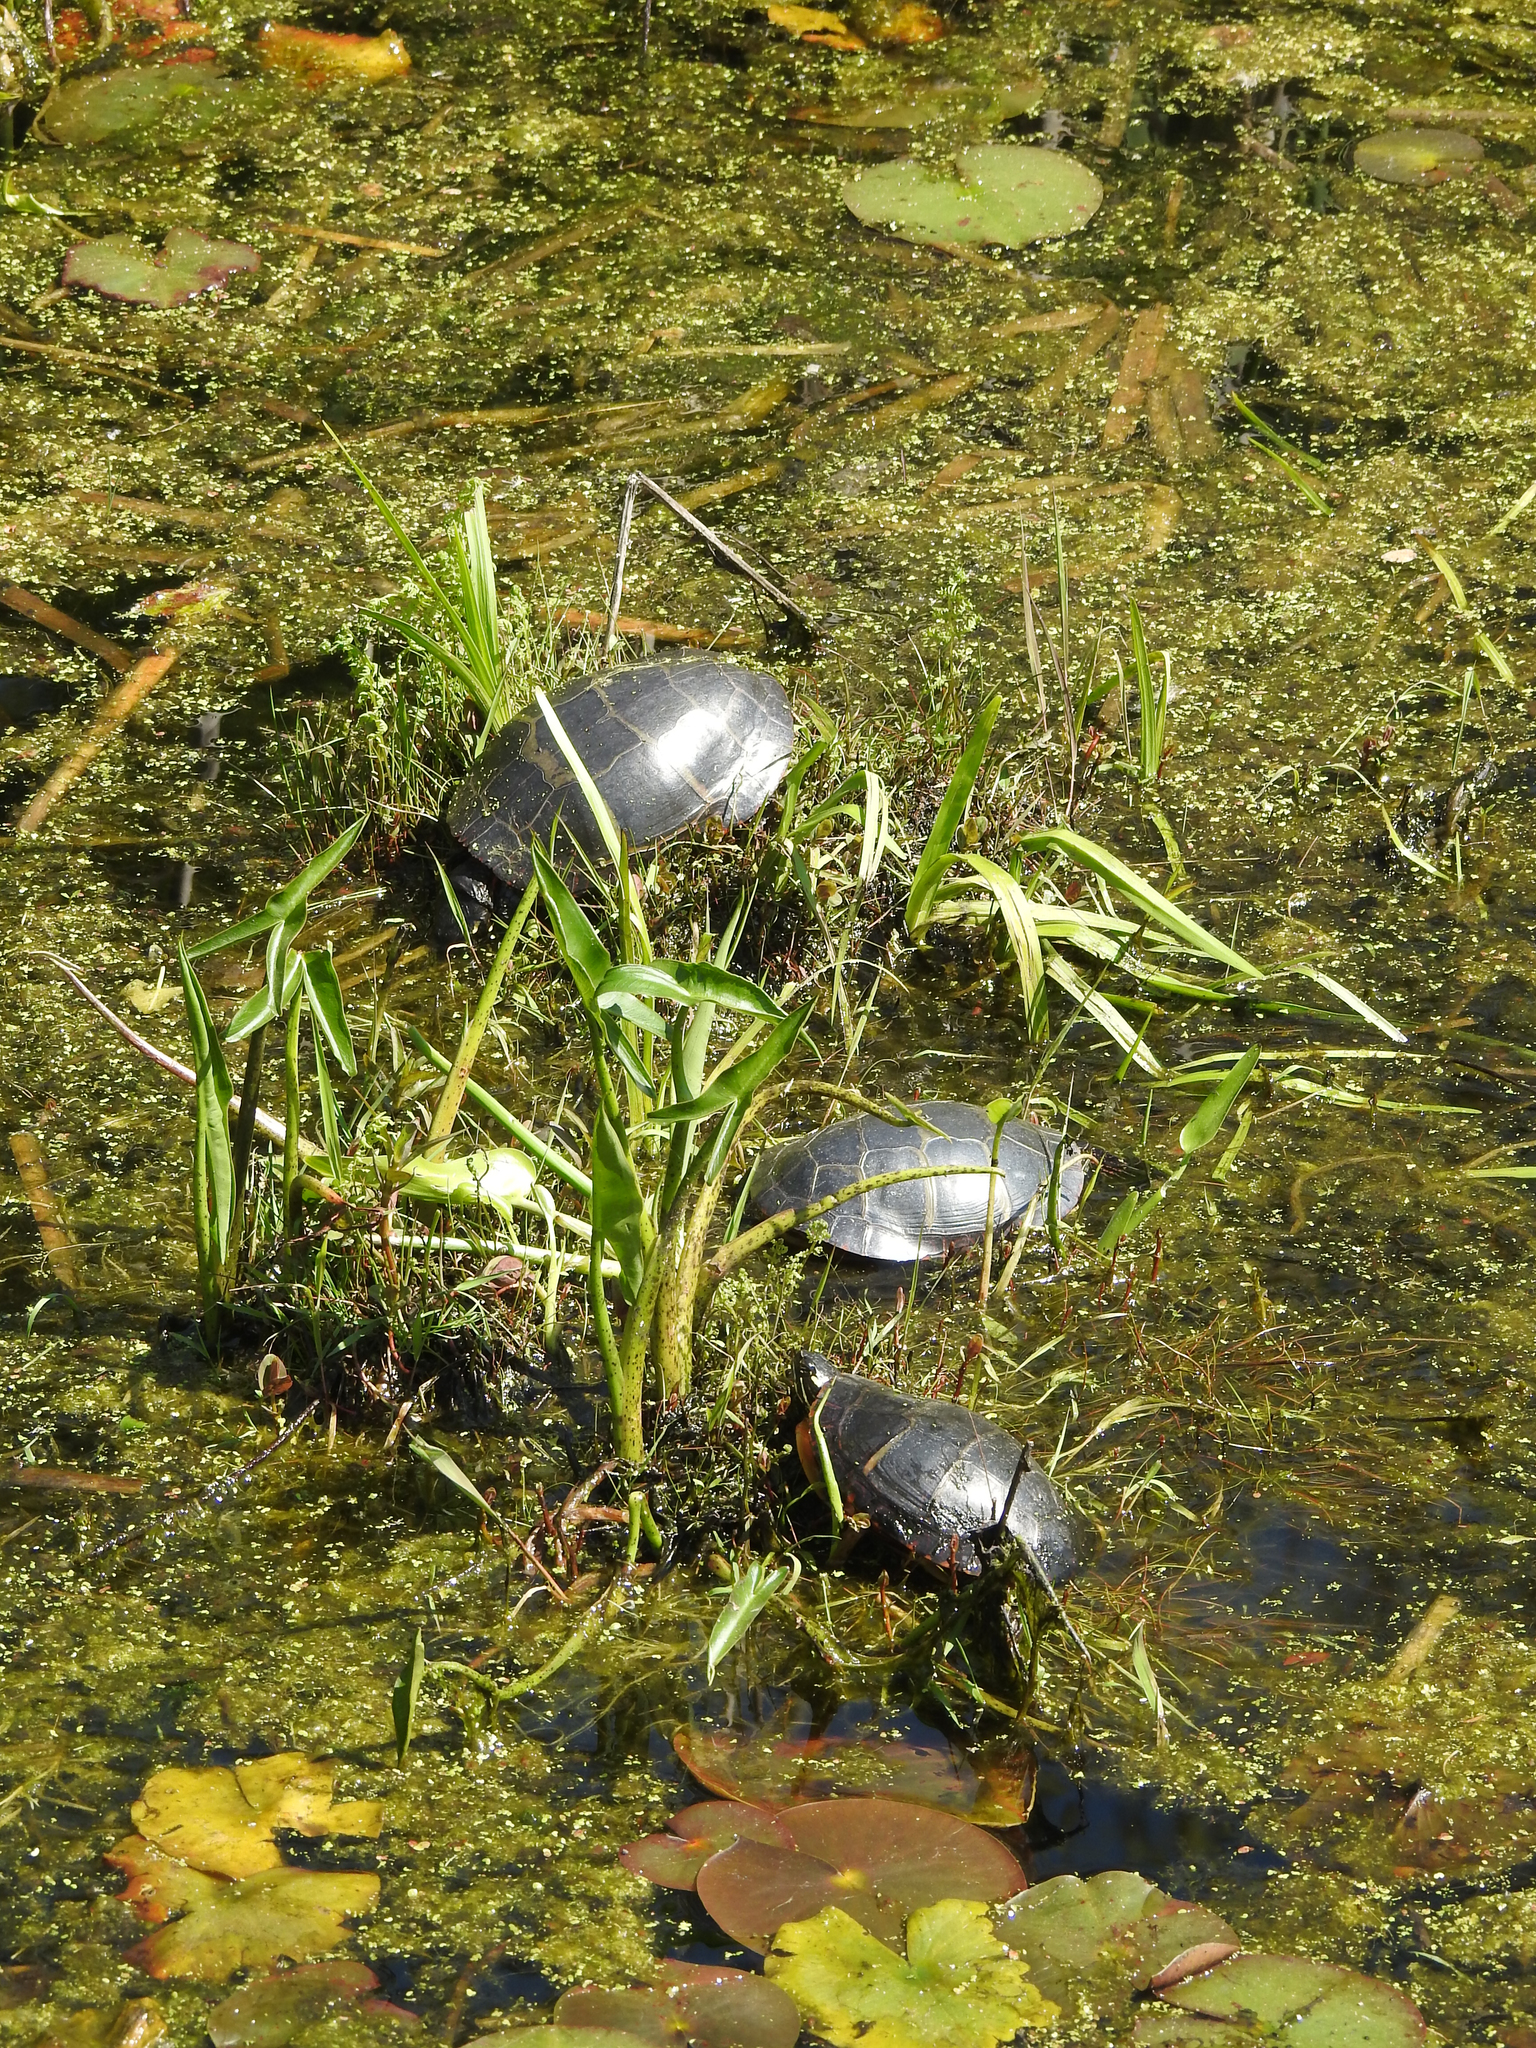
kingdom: Animalia
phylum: Chordata
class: Testudines
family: Emydidae
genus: Chrysemys
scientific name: Chrysemys picta
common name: Painted turtle
